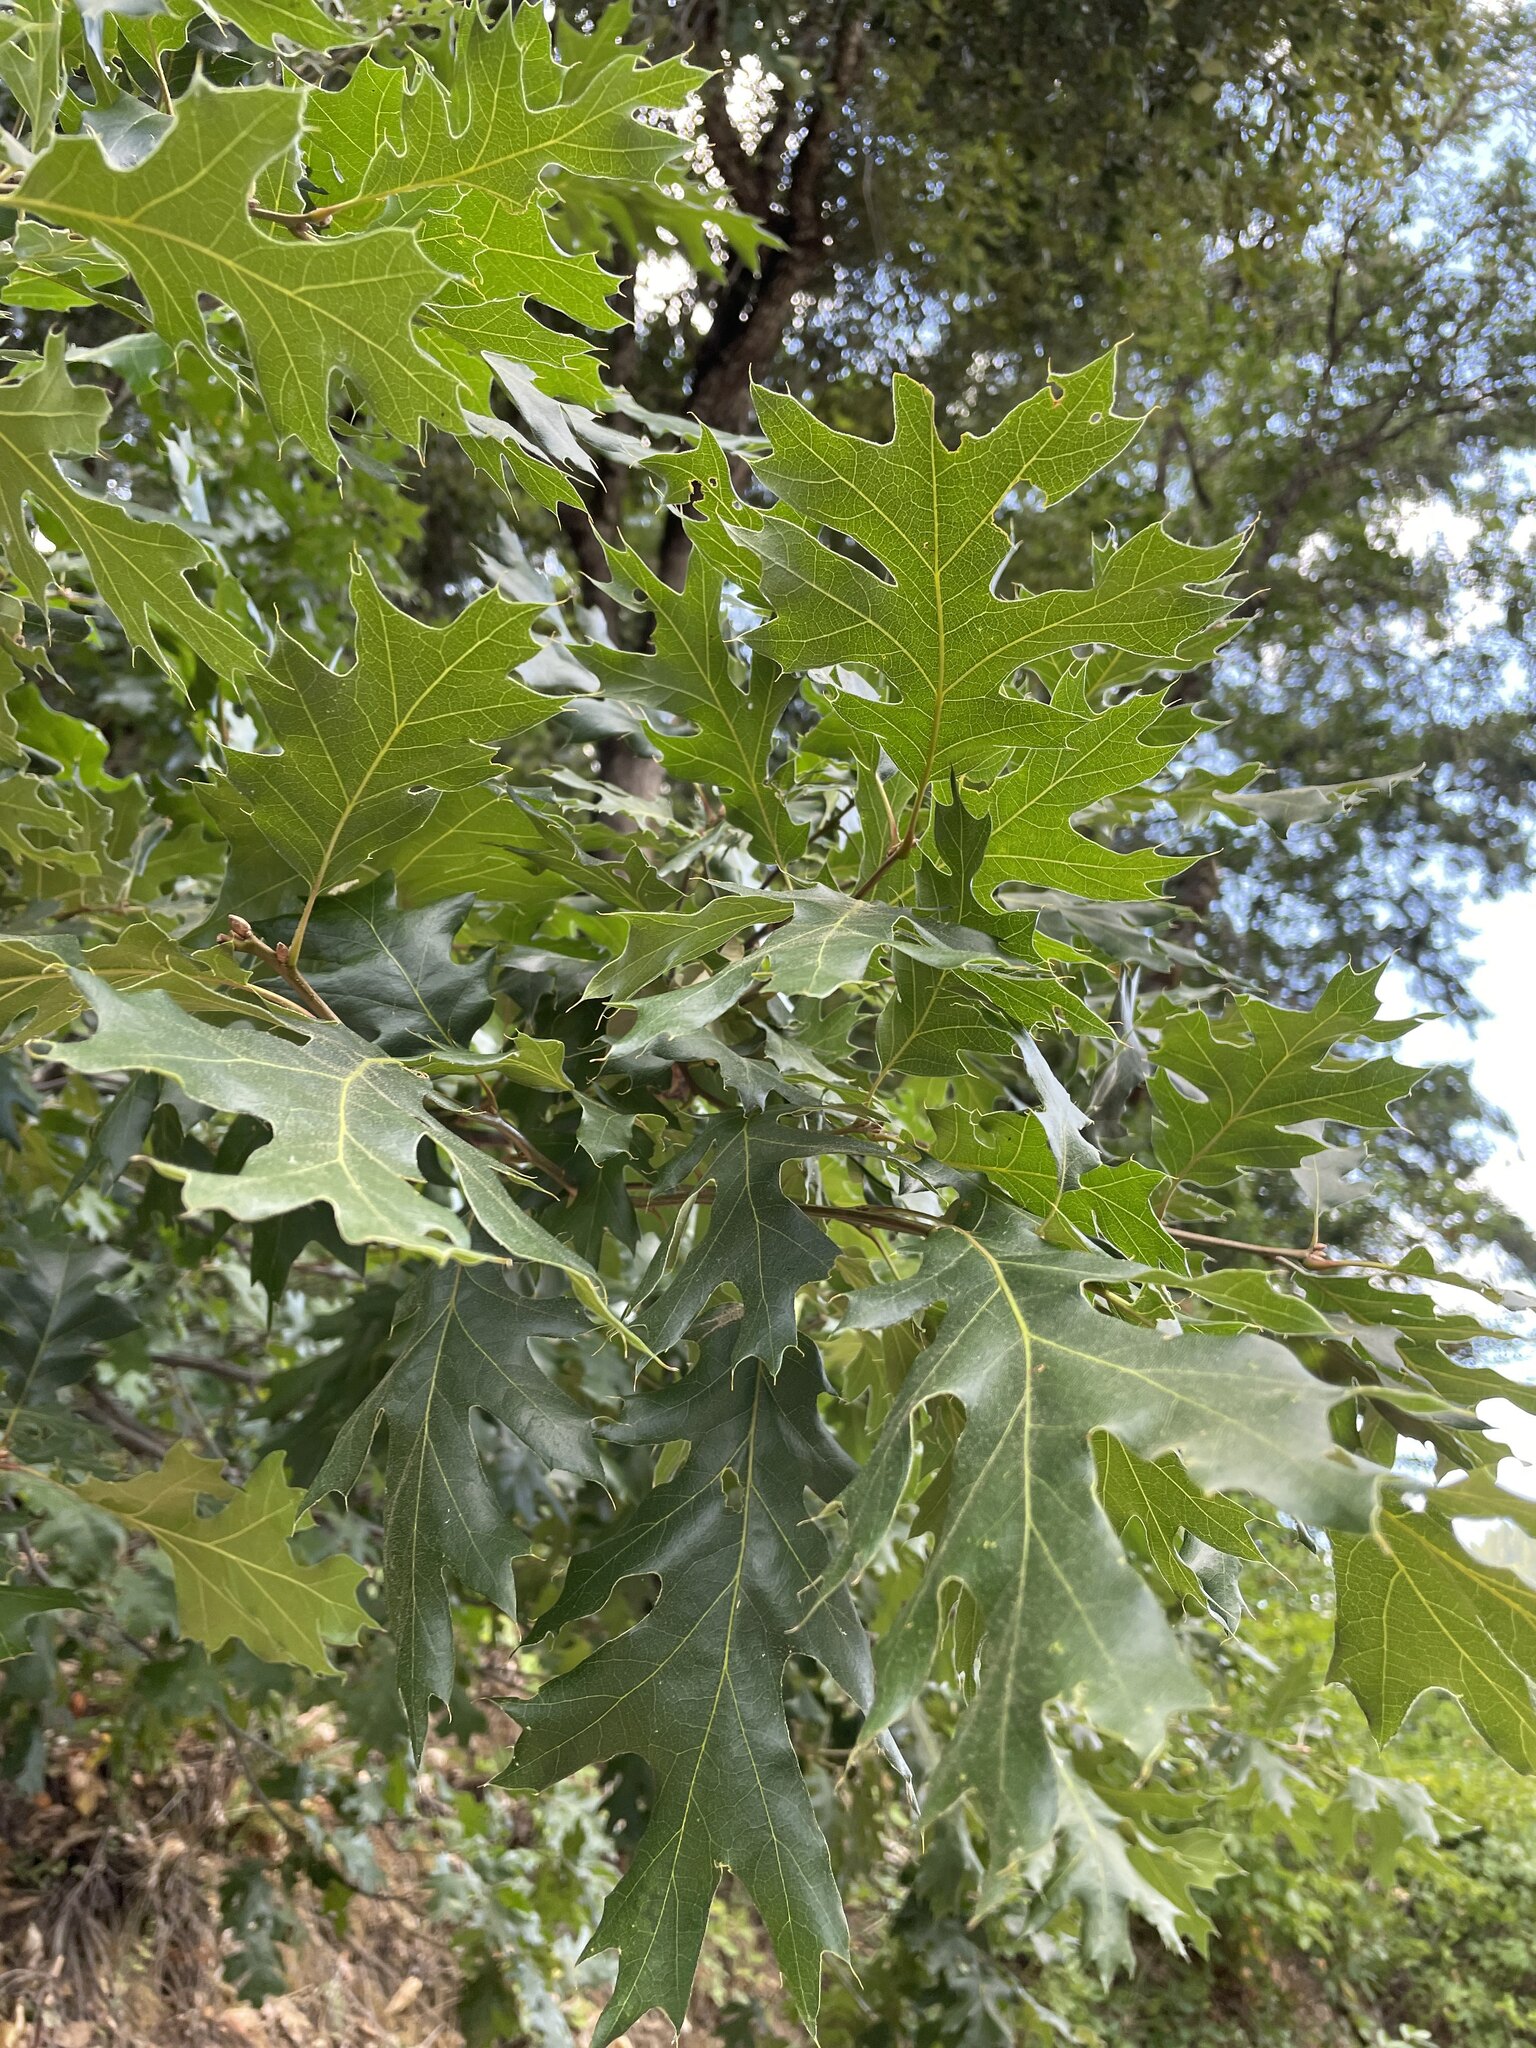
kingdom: Plantae
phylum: Tracheophyta
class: Magnoliopsida
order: Fagales
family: Fagaceae
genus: Quercus
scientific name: Quercus kelloggii
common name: California black oak
